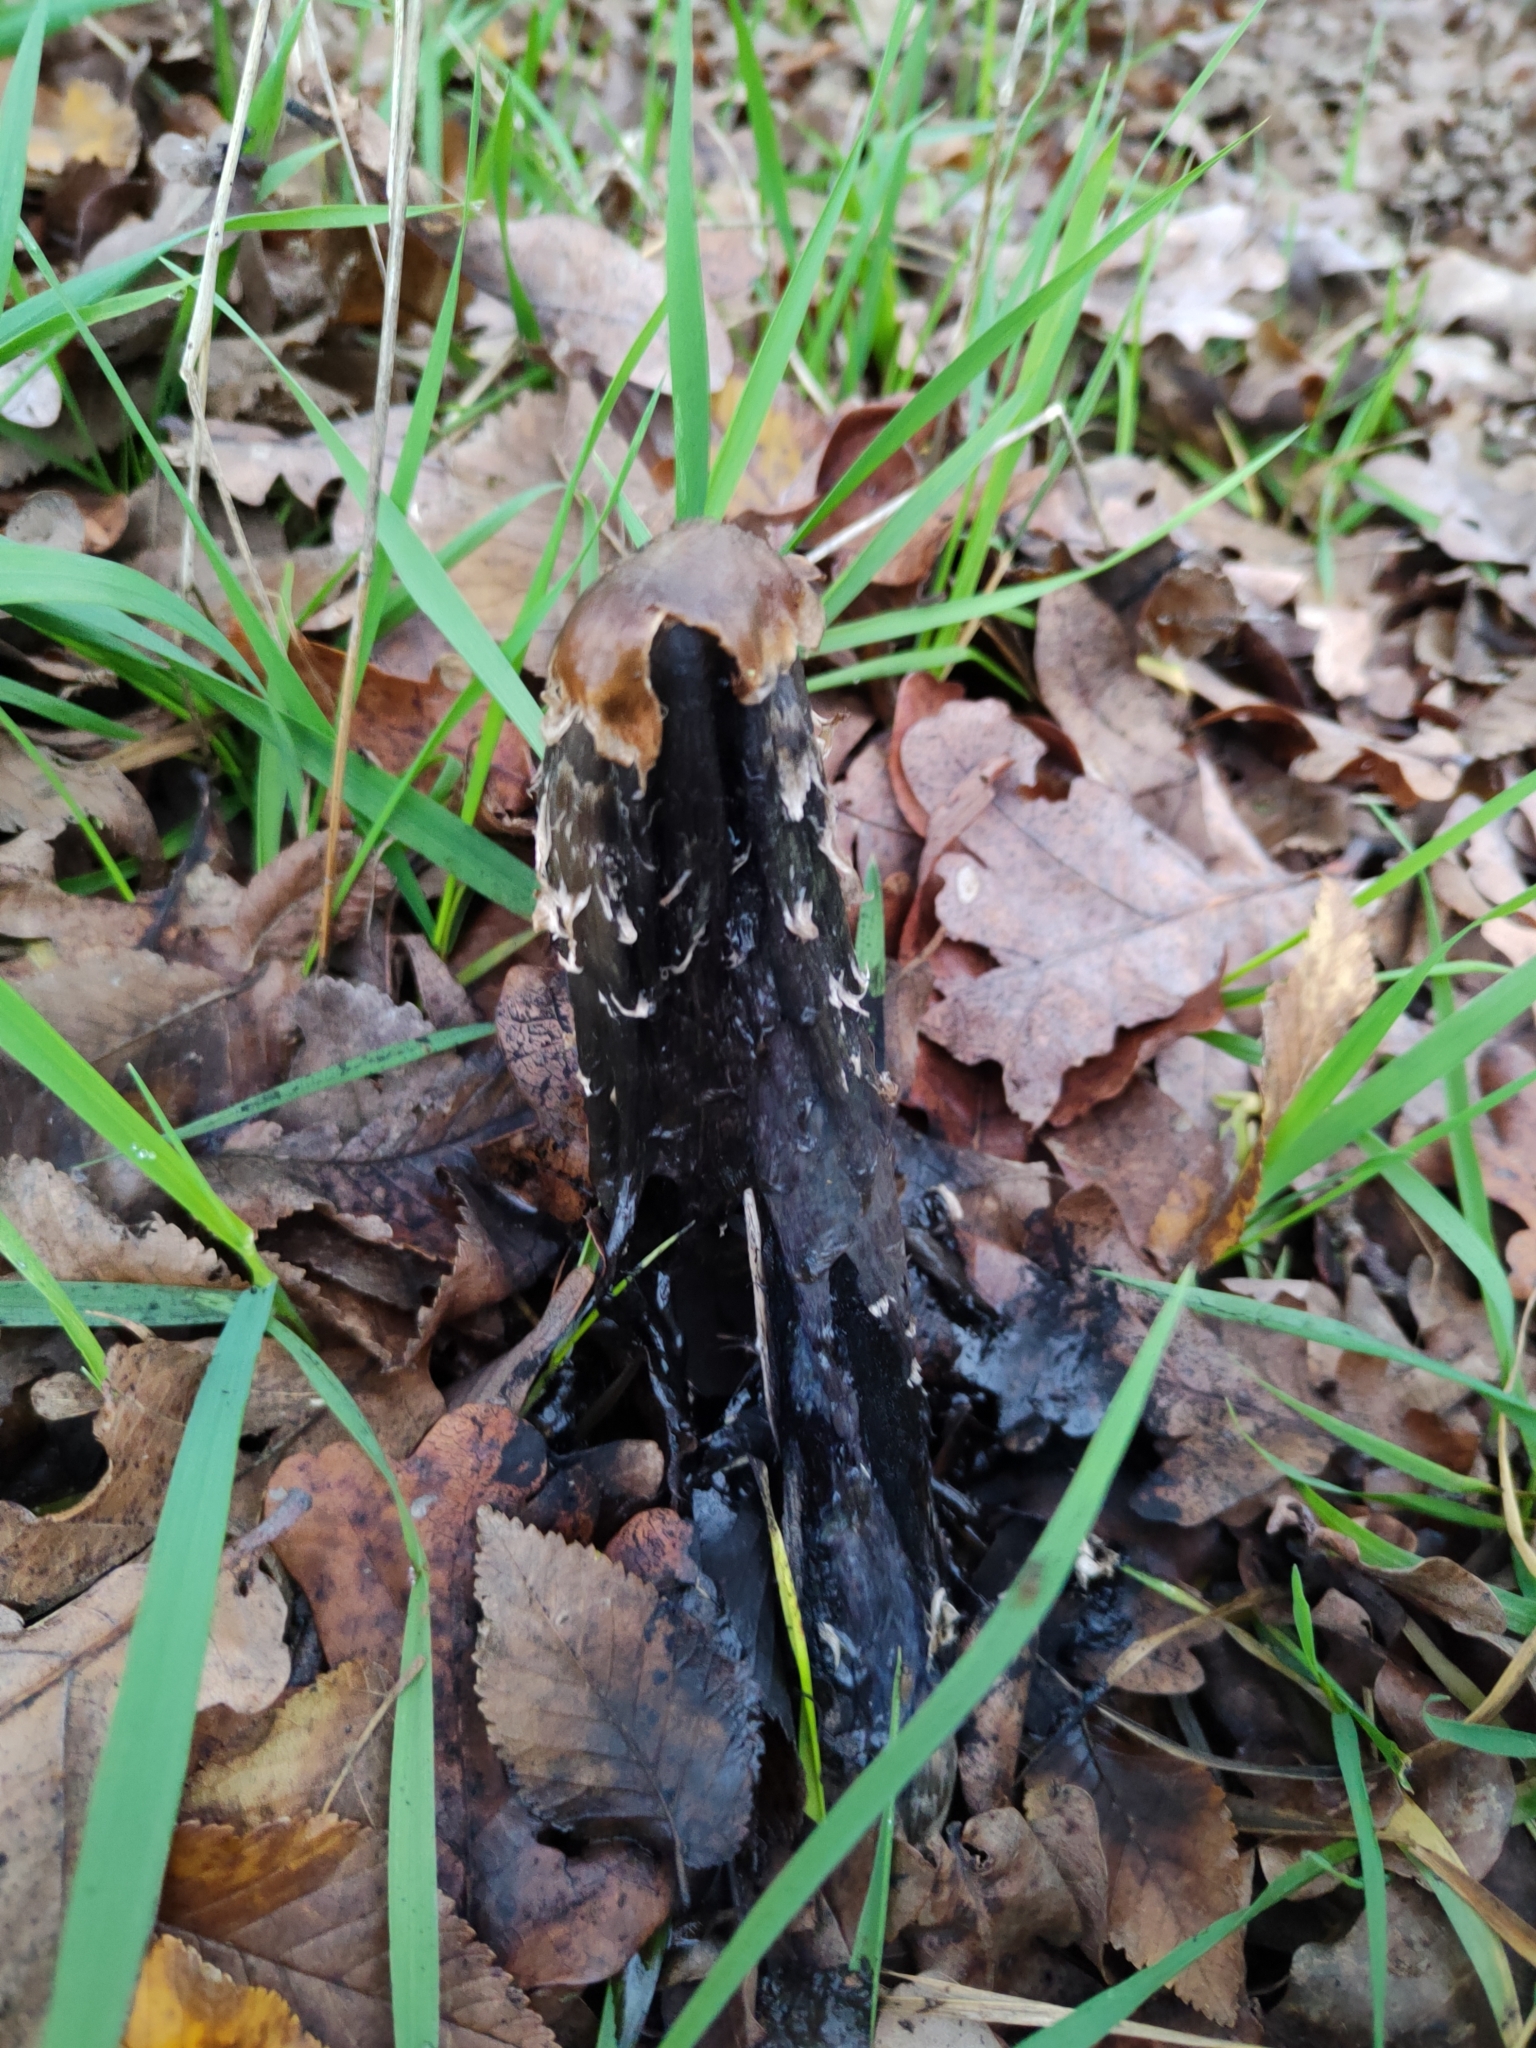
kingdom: Fungi
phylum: Basidiomycota
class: Agaricomycetes
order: Agaricales
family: Agaricaceae
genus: Coprinus
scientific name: Coprinus comatus
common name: Lawyer's wig
